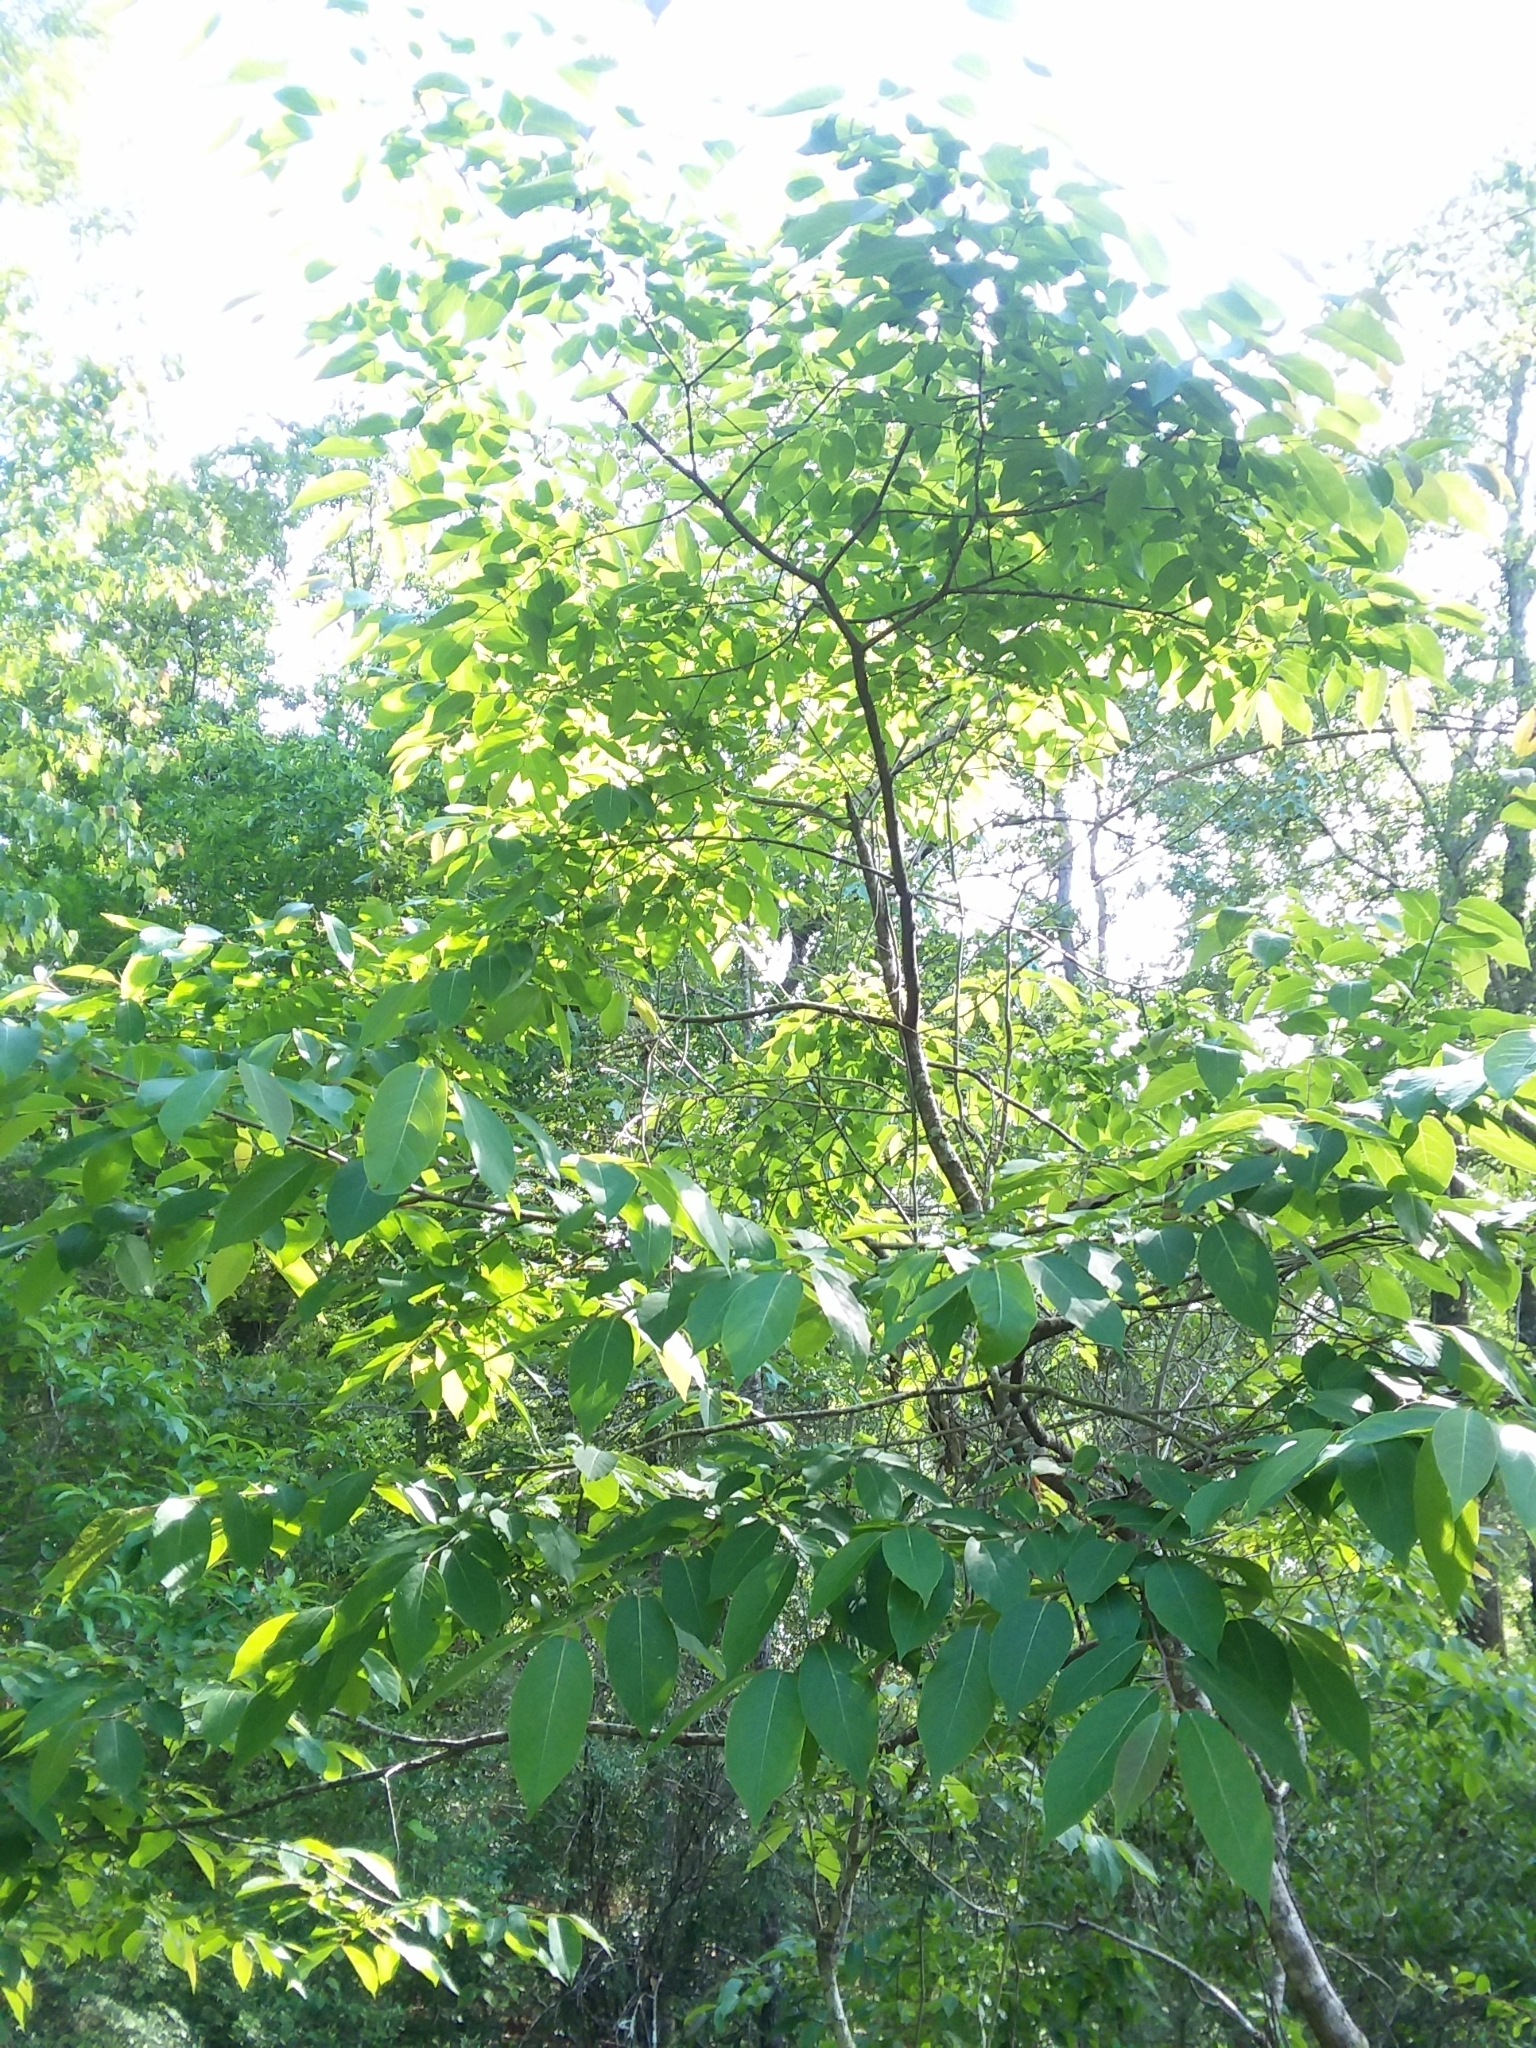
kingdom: Plantae
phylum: Tracheophyta
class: Magnoliopsida
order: Ericales
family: Ebenaceae
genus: Diospyros
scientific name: Diospyros virginiana
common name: Persimmon
